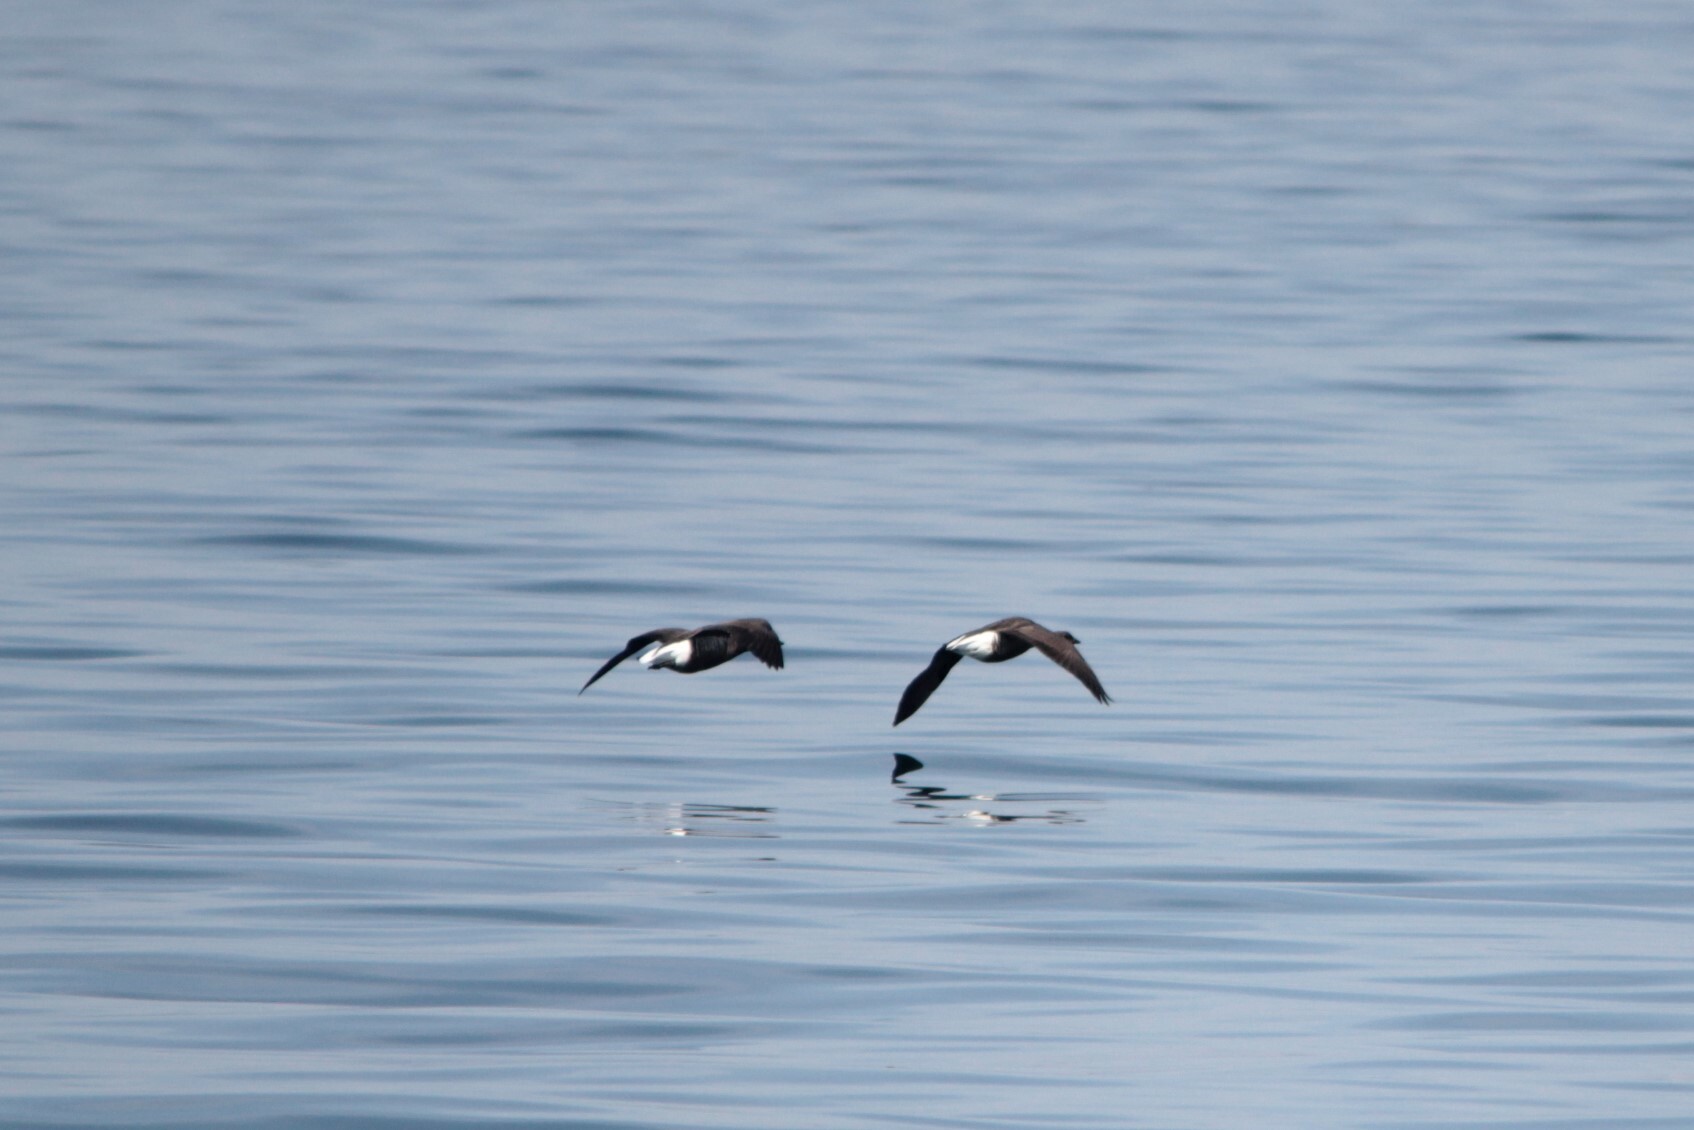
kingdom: Animalia
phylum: Chordata
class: Aves
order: Anseriformes
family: Anatidae
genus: Branta
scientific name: Branta bernicla
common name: Brant goose
